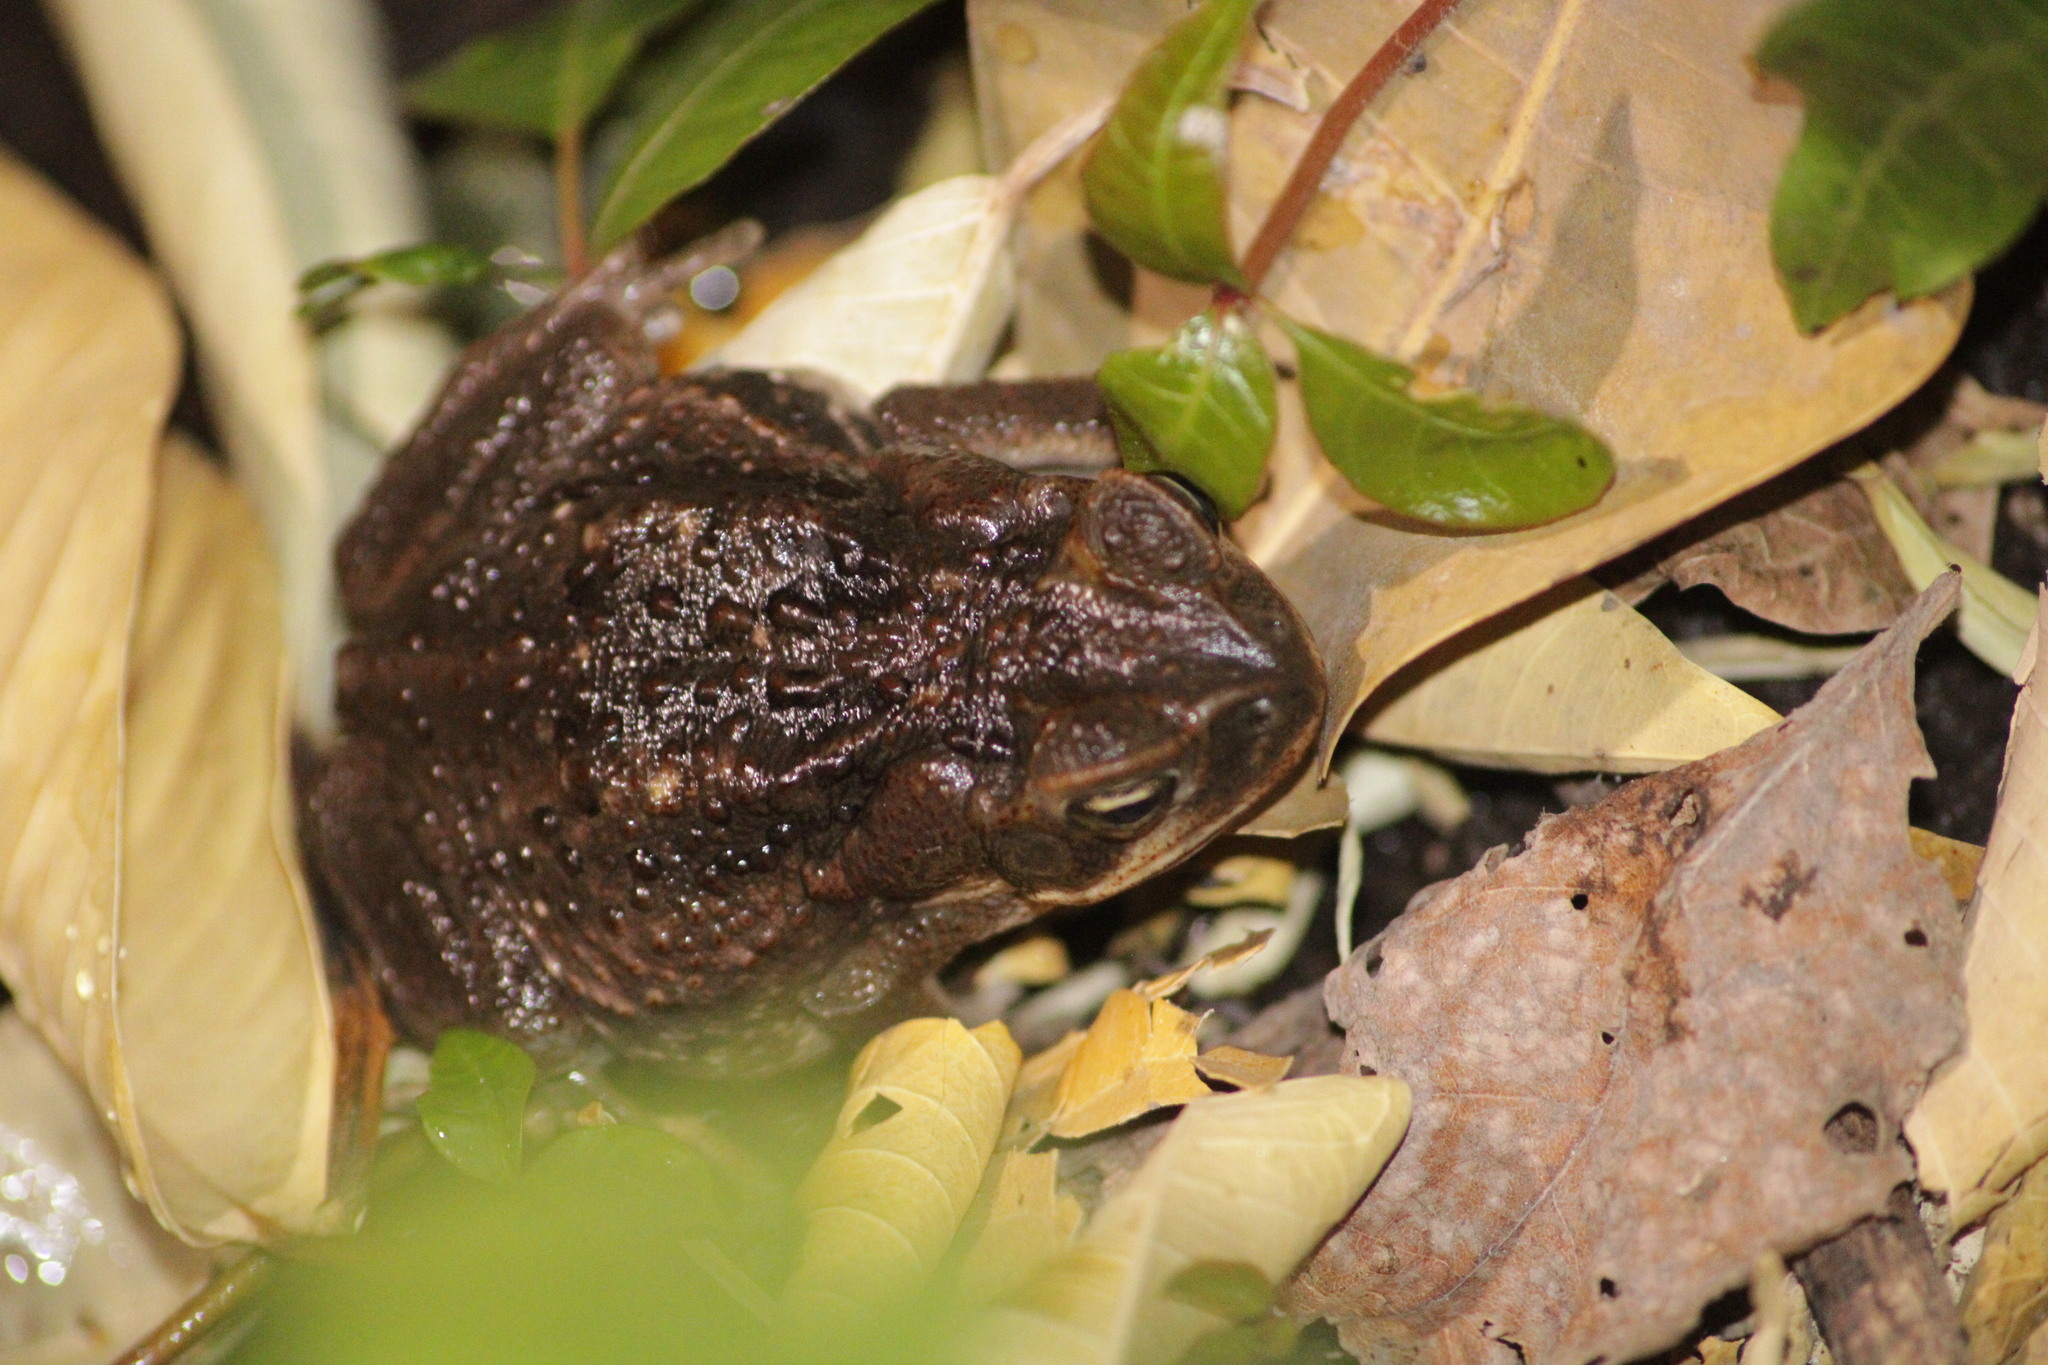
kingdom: Animalia
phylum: Chordata
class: Amphibia
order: Anura
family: Bufonidae
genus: Rhinella
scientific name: Rhinella horribilis
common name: Mesoamerican cane toad
